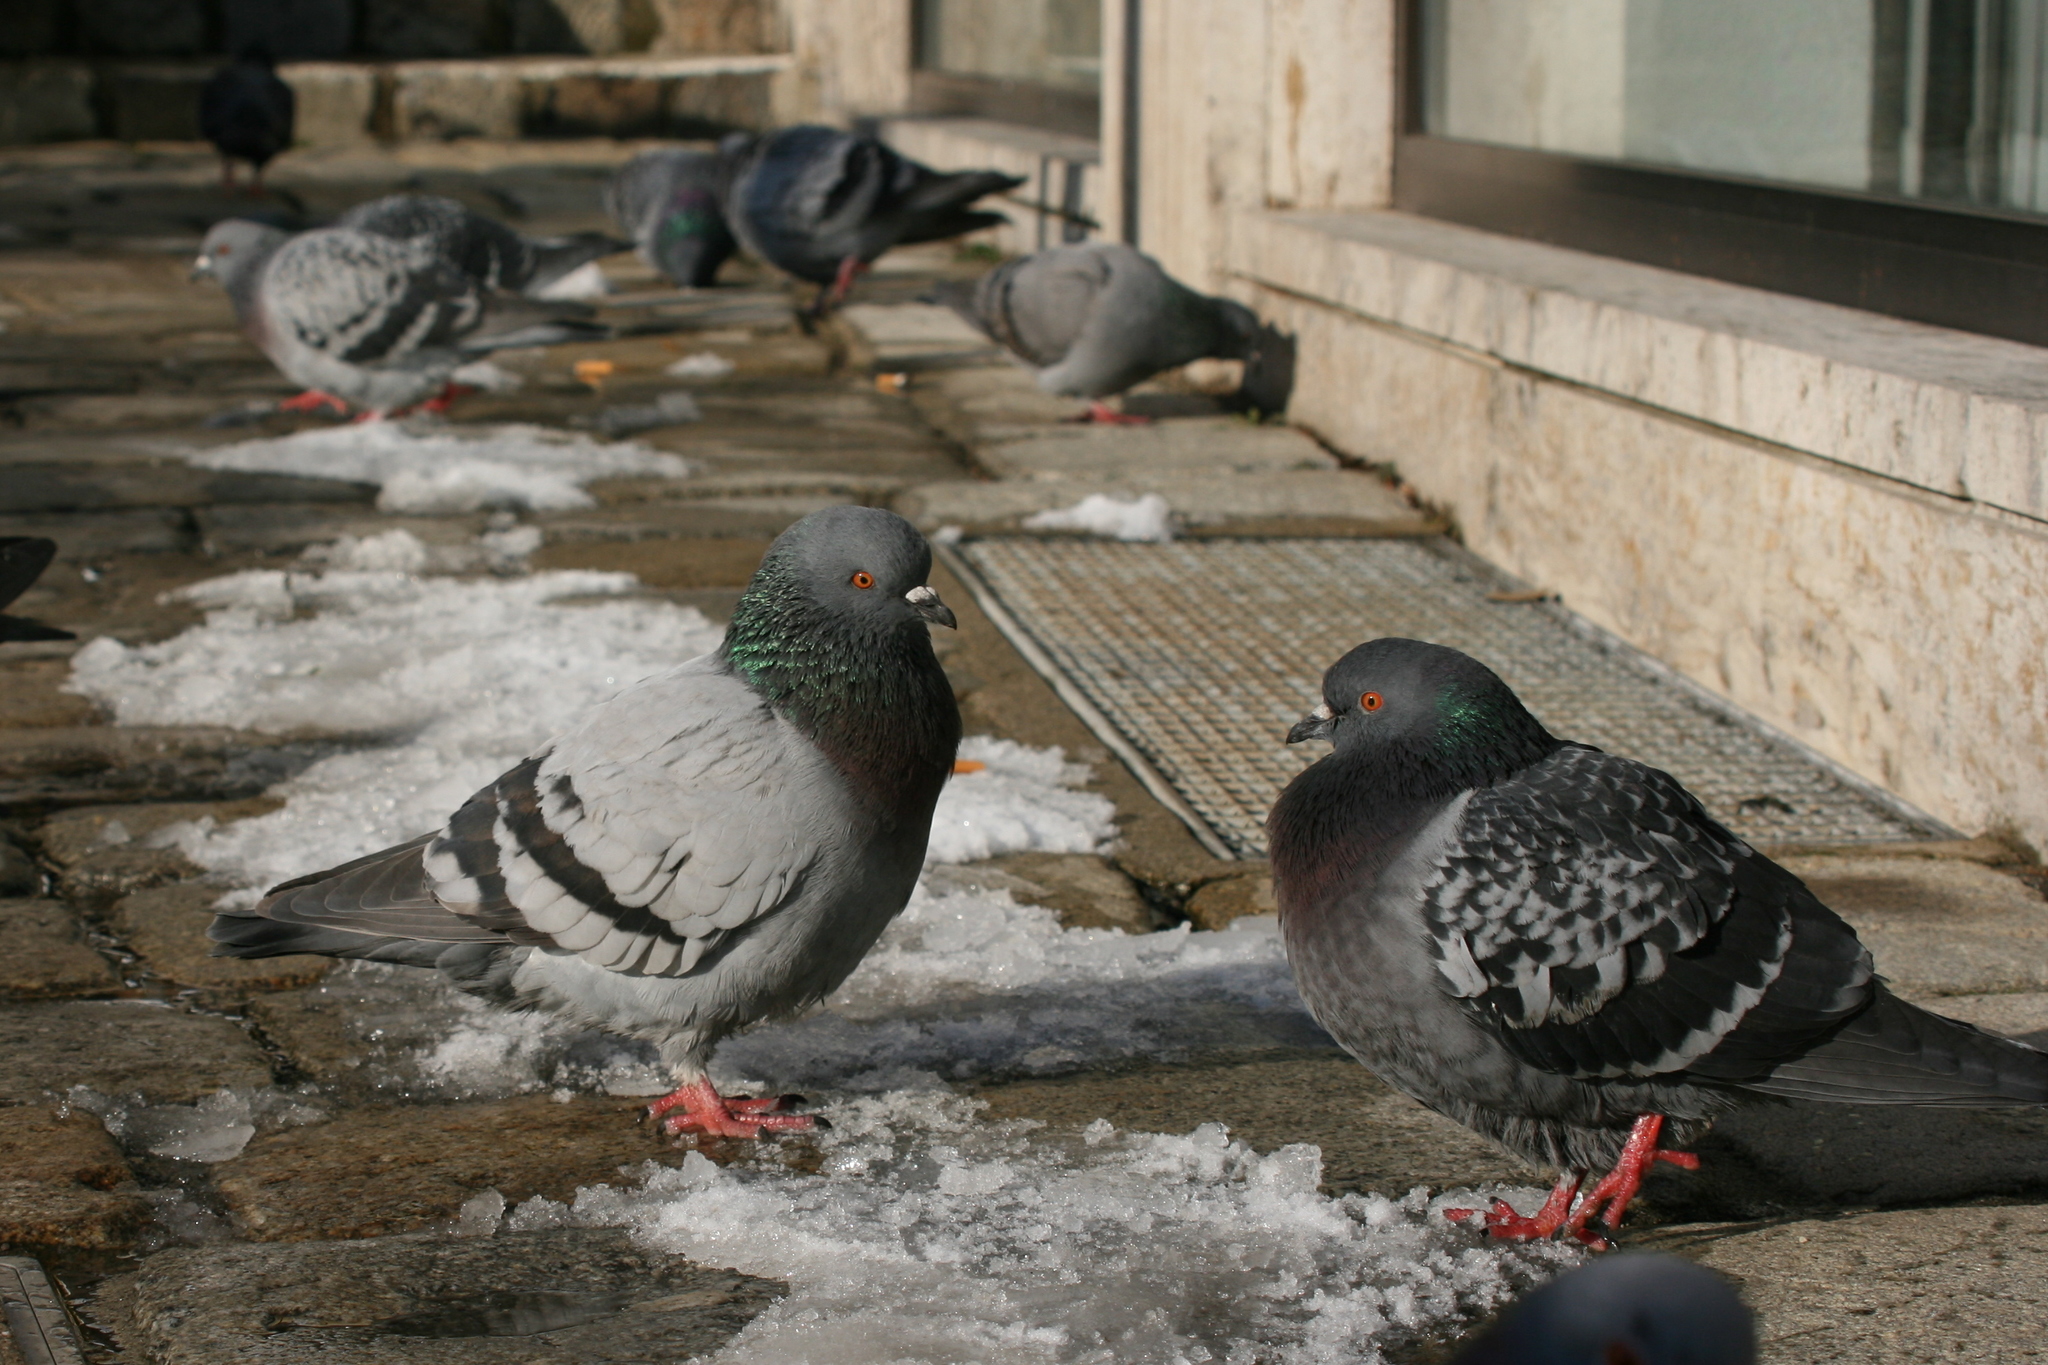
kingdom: Animalia
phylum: Chordata
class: Aves
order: Columbiformes
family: Columbidae
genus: Columba
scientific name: Columba livia
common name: Rock pigeon
